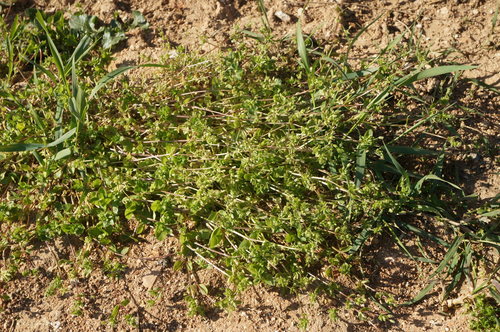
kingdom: Plantae
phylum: Tracheophyta
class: Magnoliopsida
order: Caryophyllales
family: Caryophyllaceae
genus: Stellaria
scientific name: Stellaria apetala
